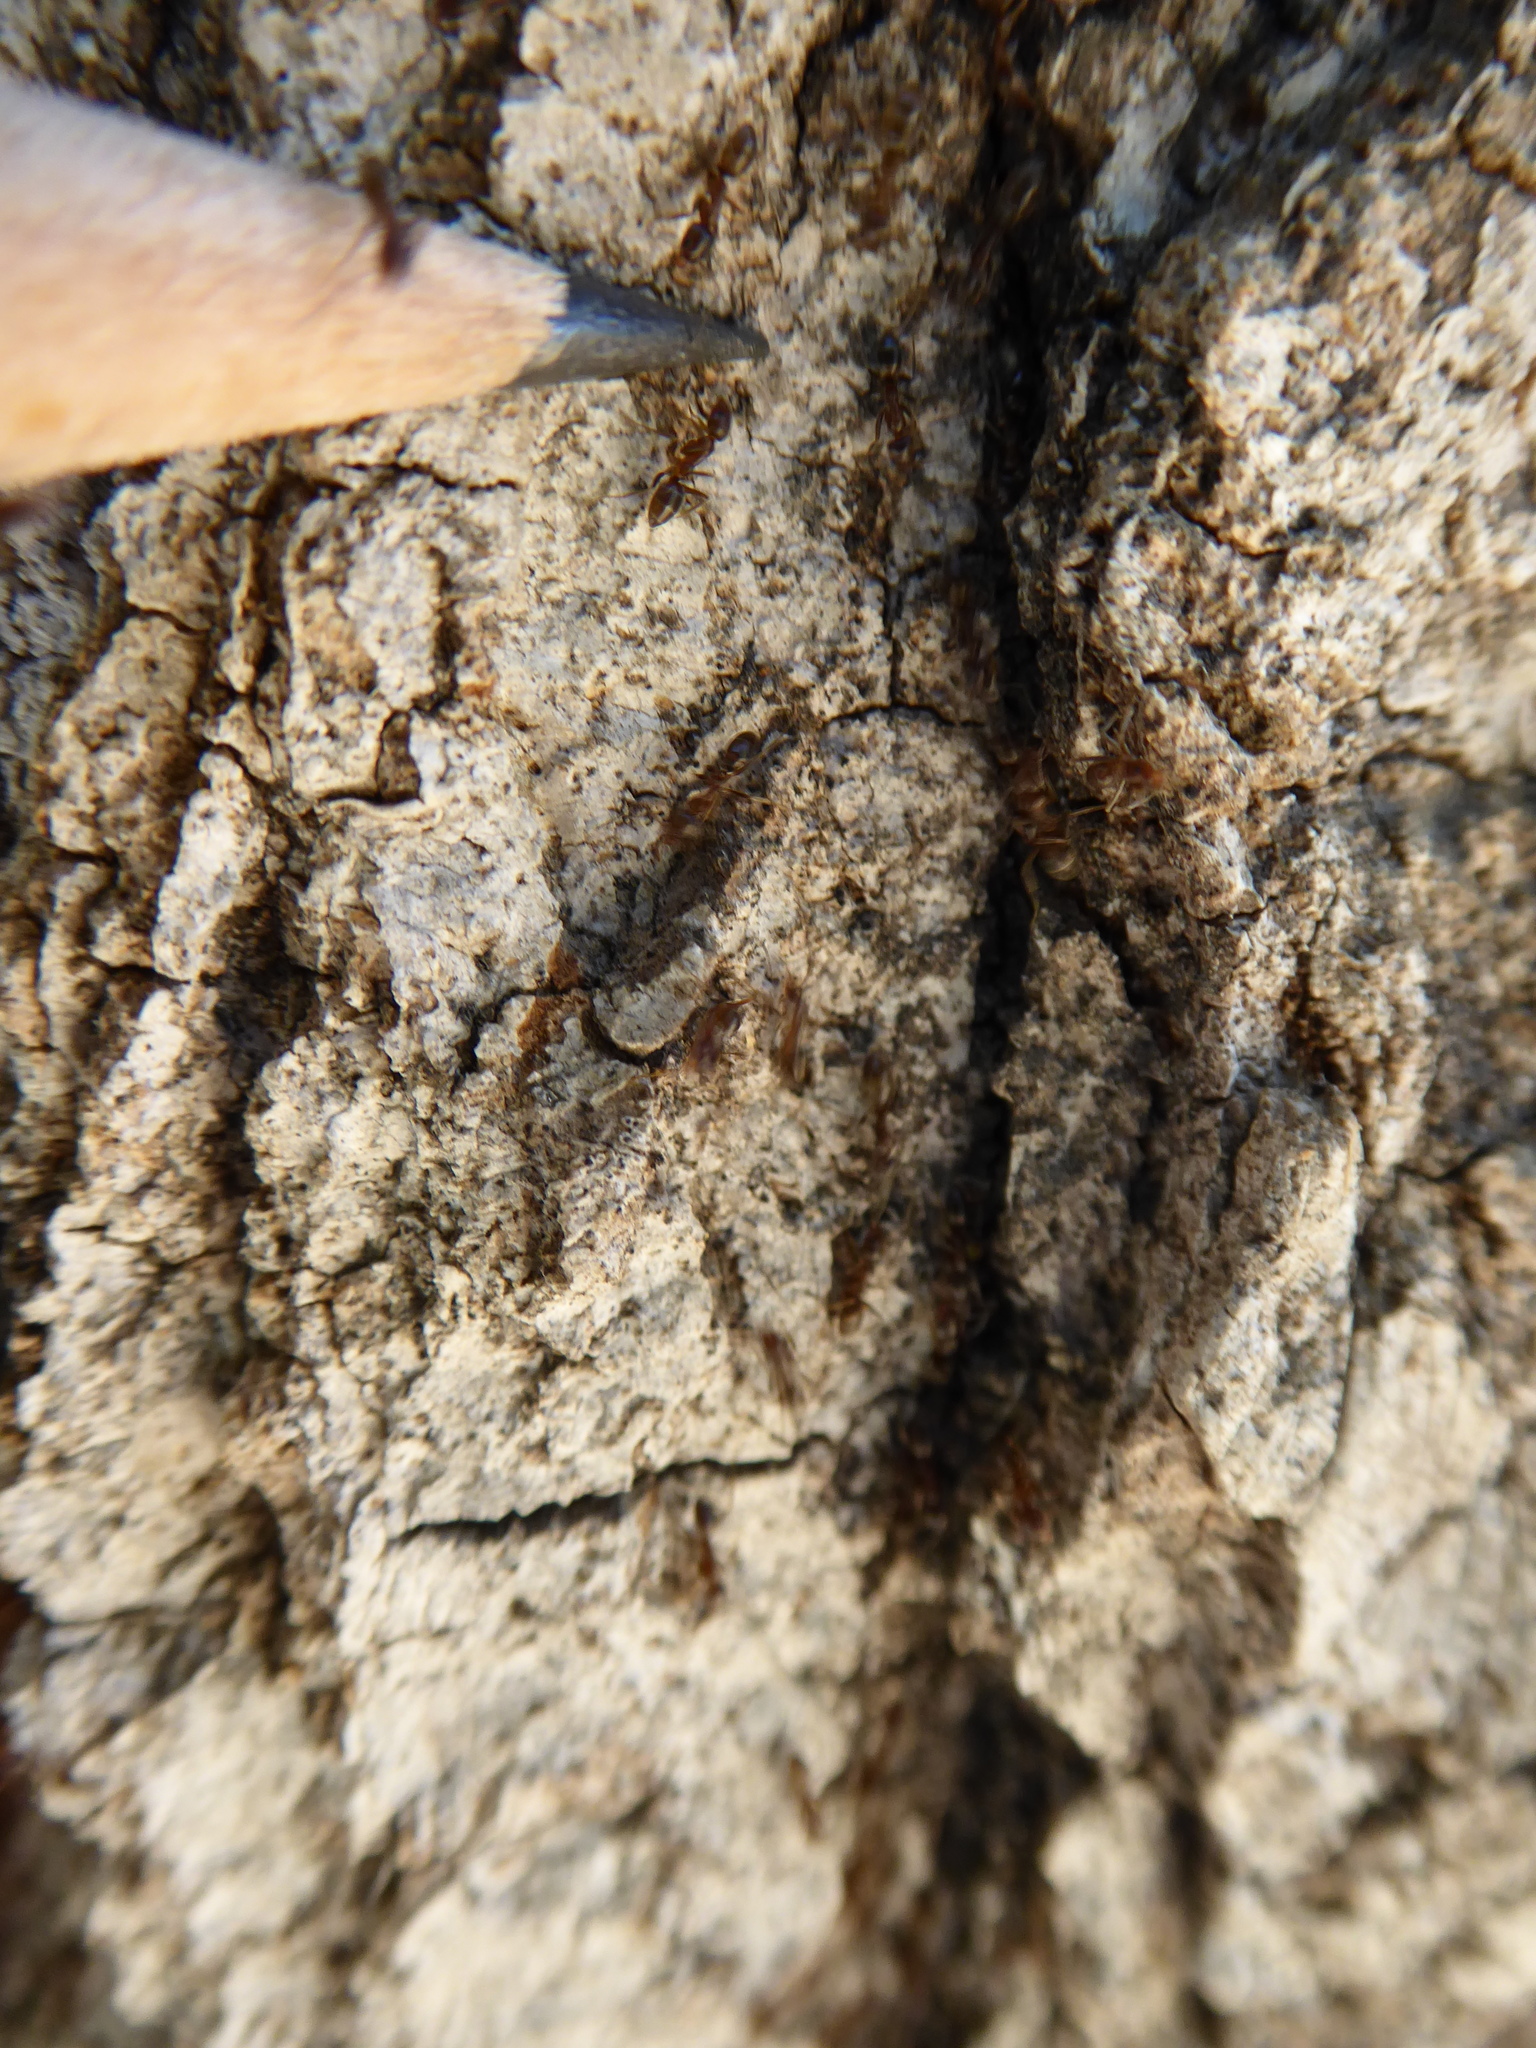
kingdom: Animalia
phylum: Arthropoda
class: Insecta
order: Hymenoptera
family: Formicidae
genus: Linepithema
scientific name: Linepithema humile
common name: Argentine ant
